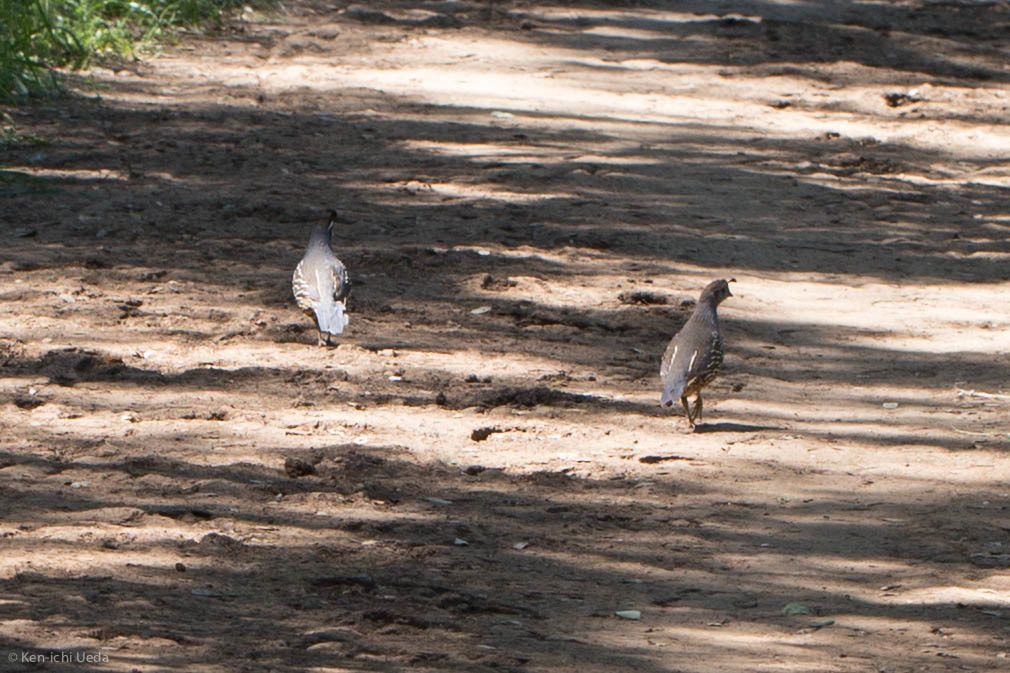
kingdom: Animalia
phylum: Chordata
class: Aves
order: Galliformes
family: Odontophoridae
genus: Callipepla
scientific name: Callipepla californica
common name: California quail
